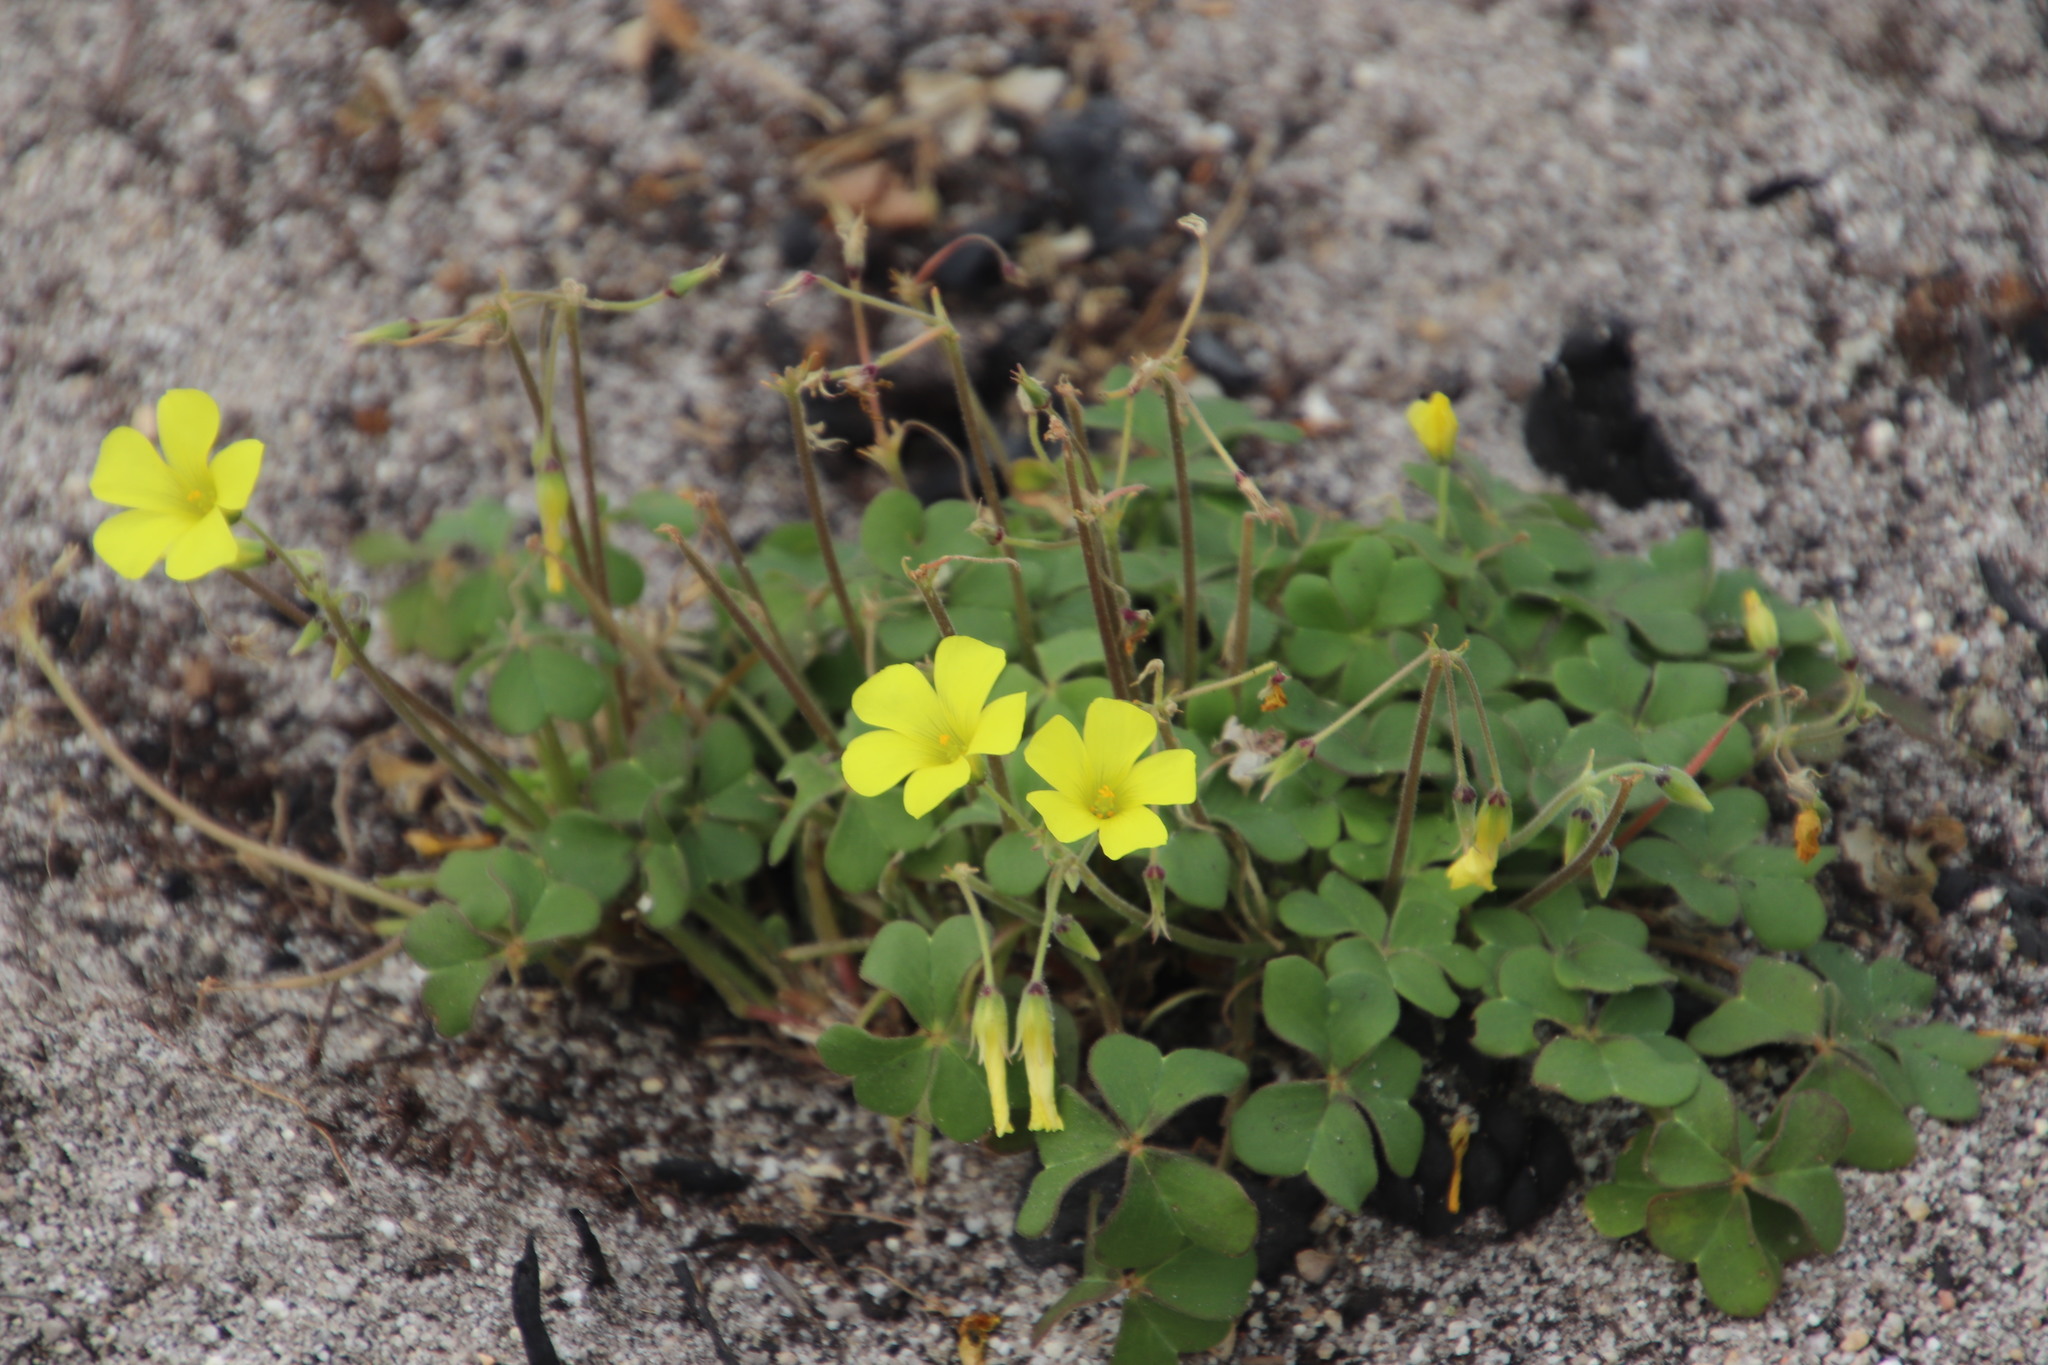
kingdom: Plantae
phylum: Tracheophyta
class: Magnoliopsida
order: Oxalidales
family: Oxalidaceae
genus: Oxalis
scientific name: Oxalis pes-caprae
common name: Bermuda-buttercup
